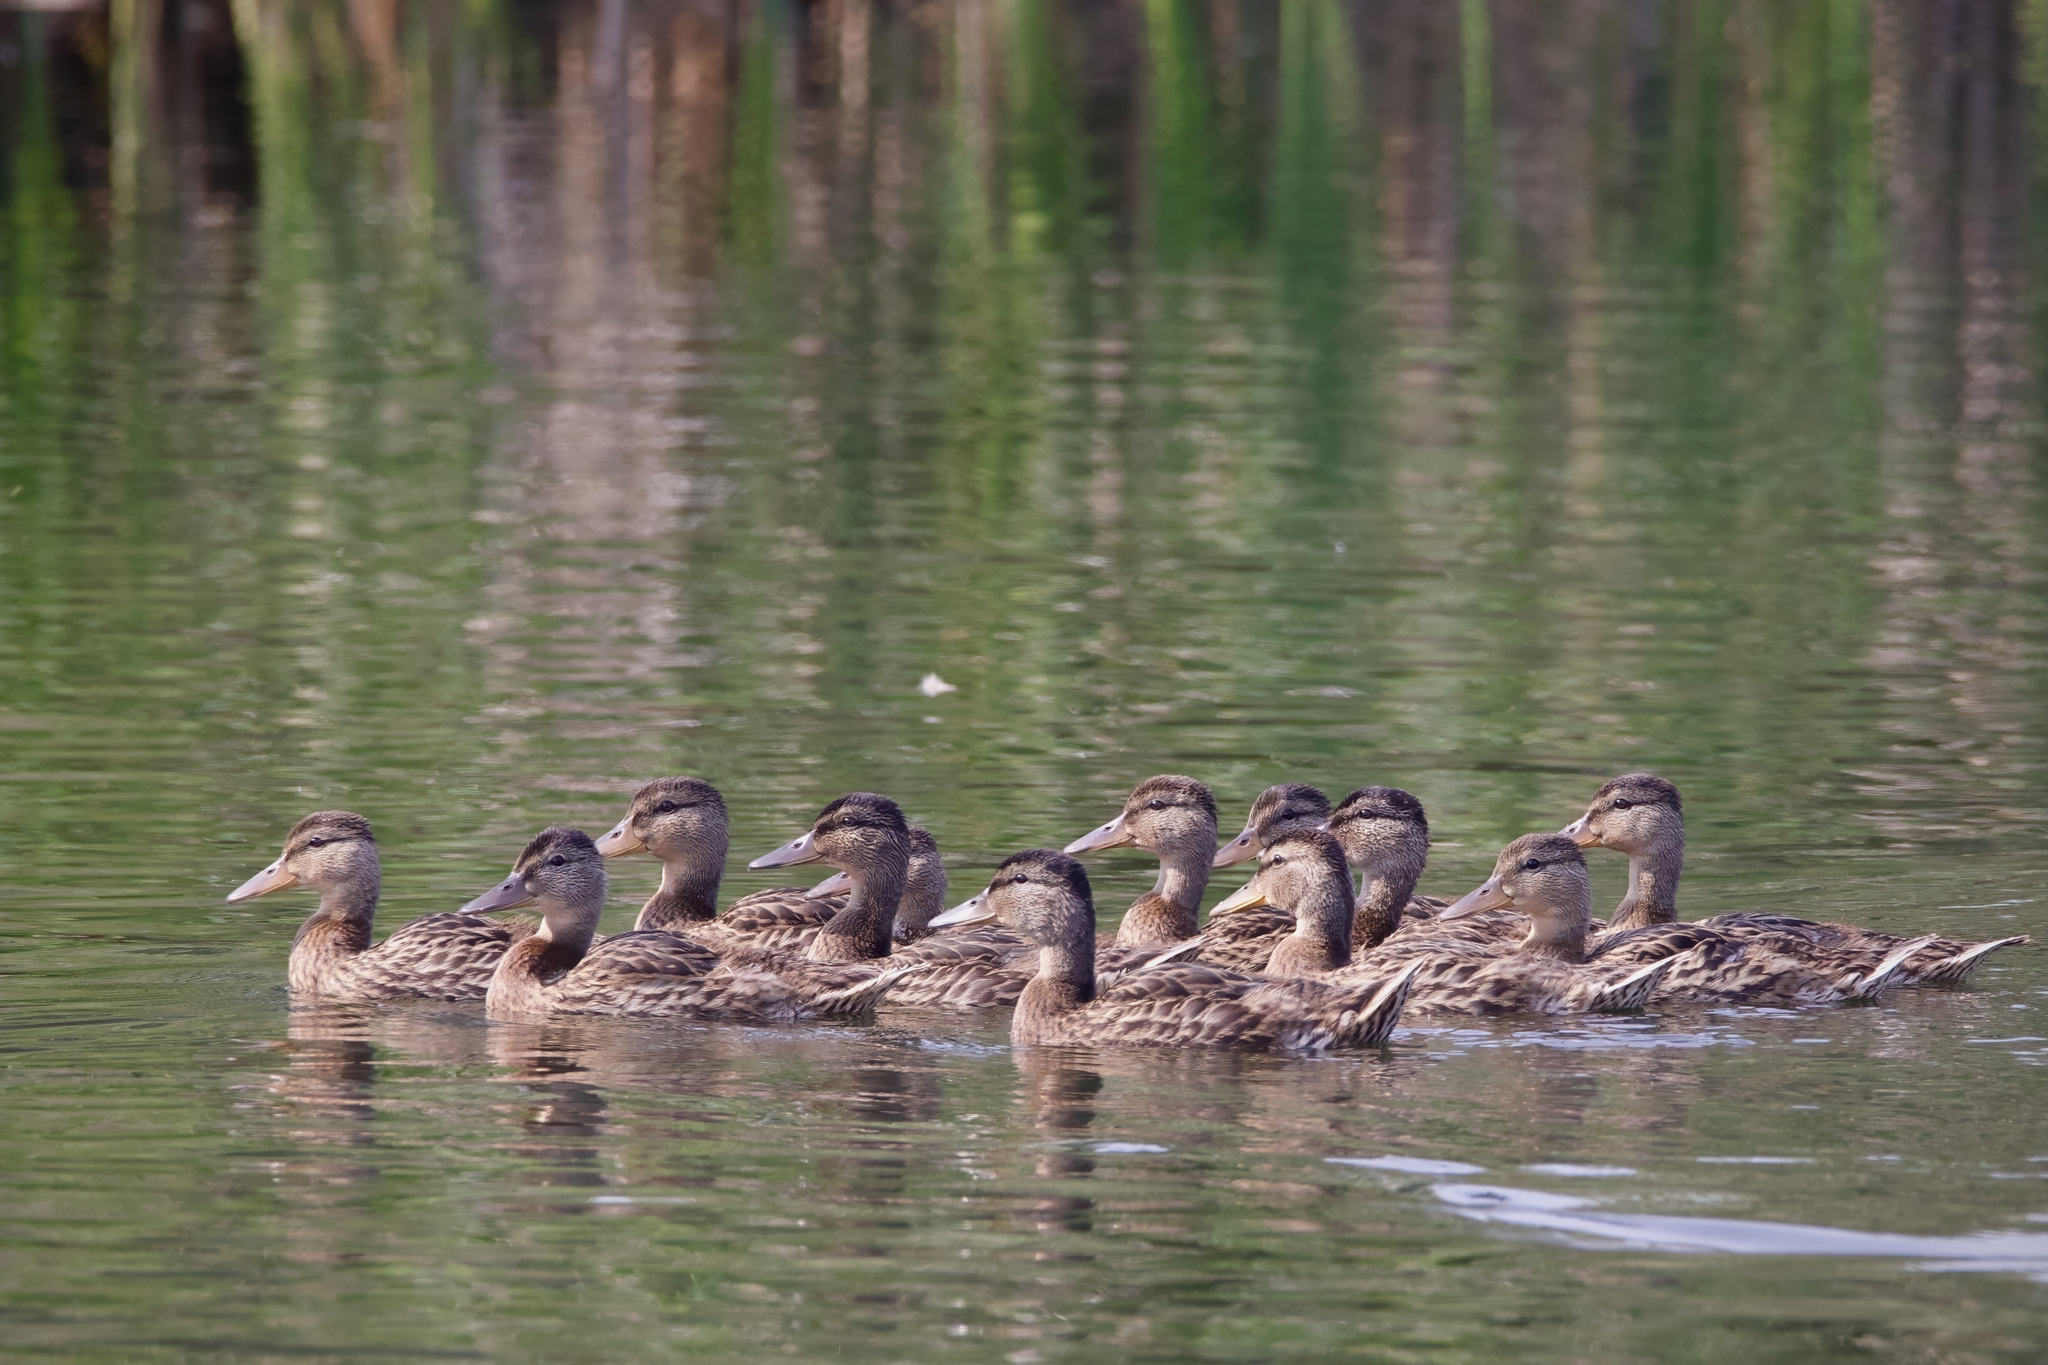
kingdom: Animalia
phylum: Chordata
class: Aves
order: Anseriformes
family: Anatidae
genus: Anas
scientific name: Anas platyrhynchos
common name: Mallard
